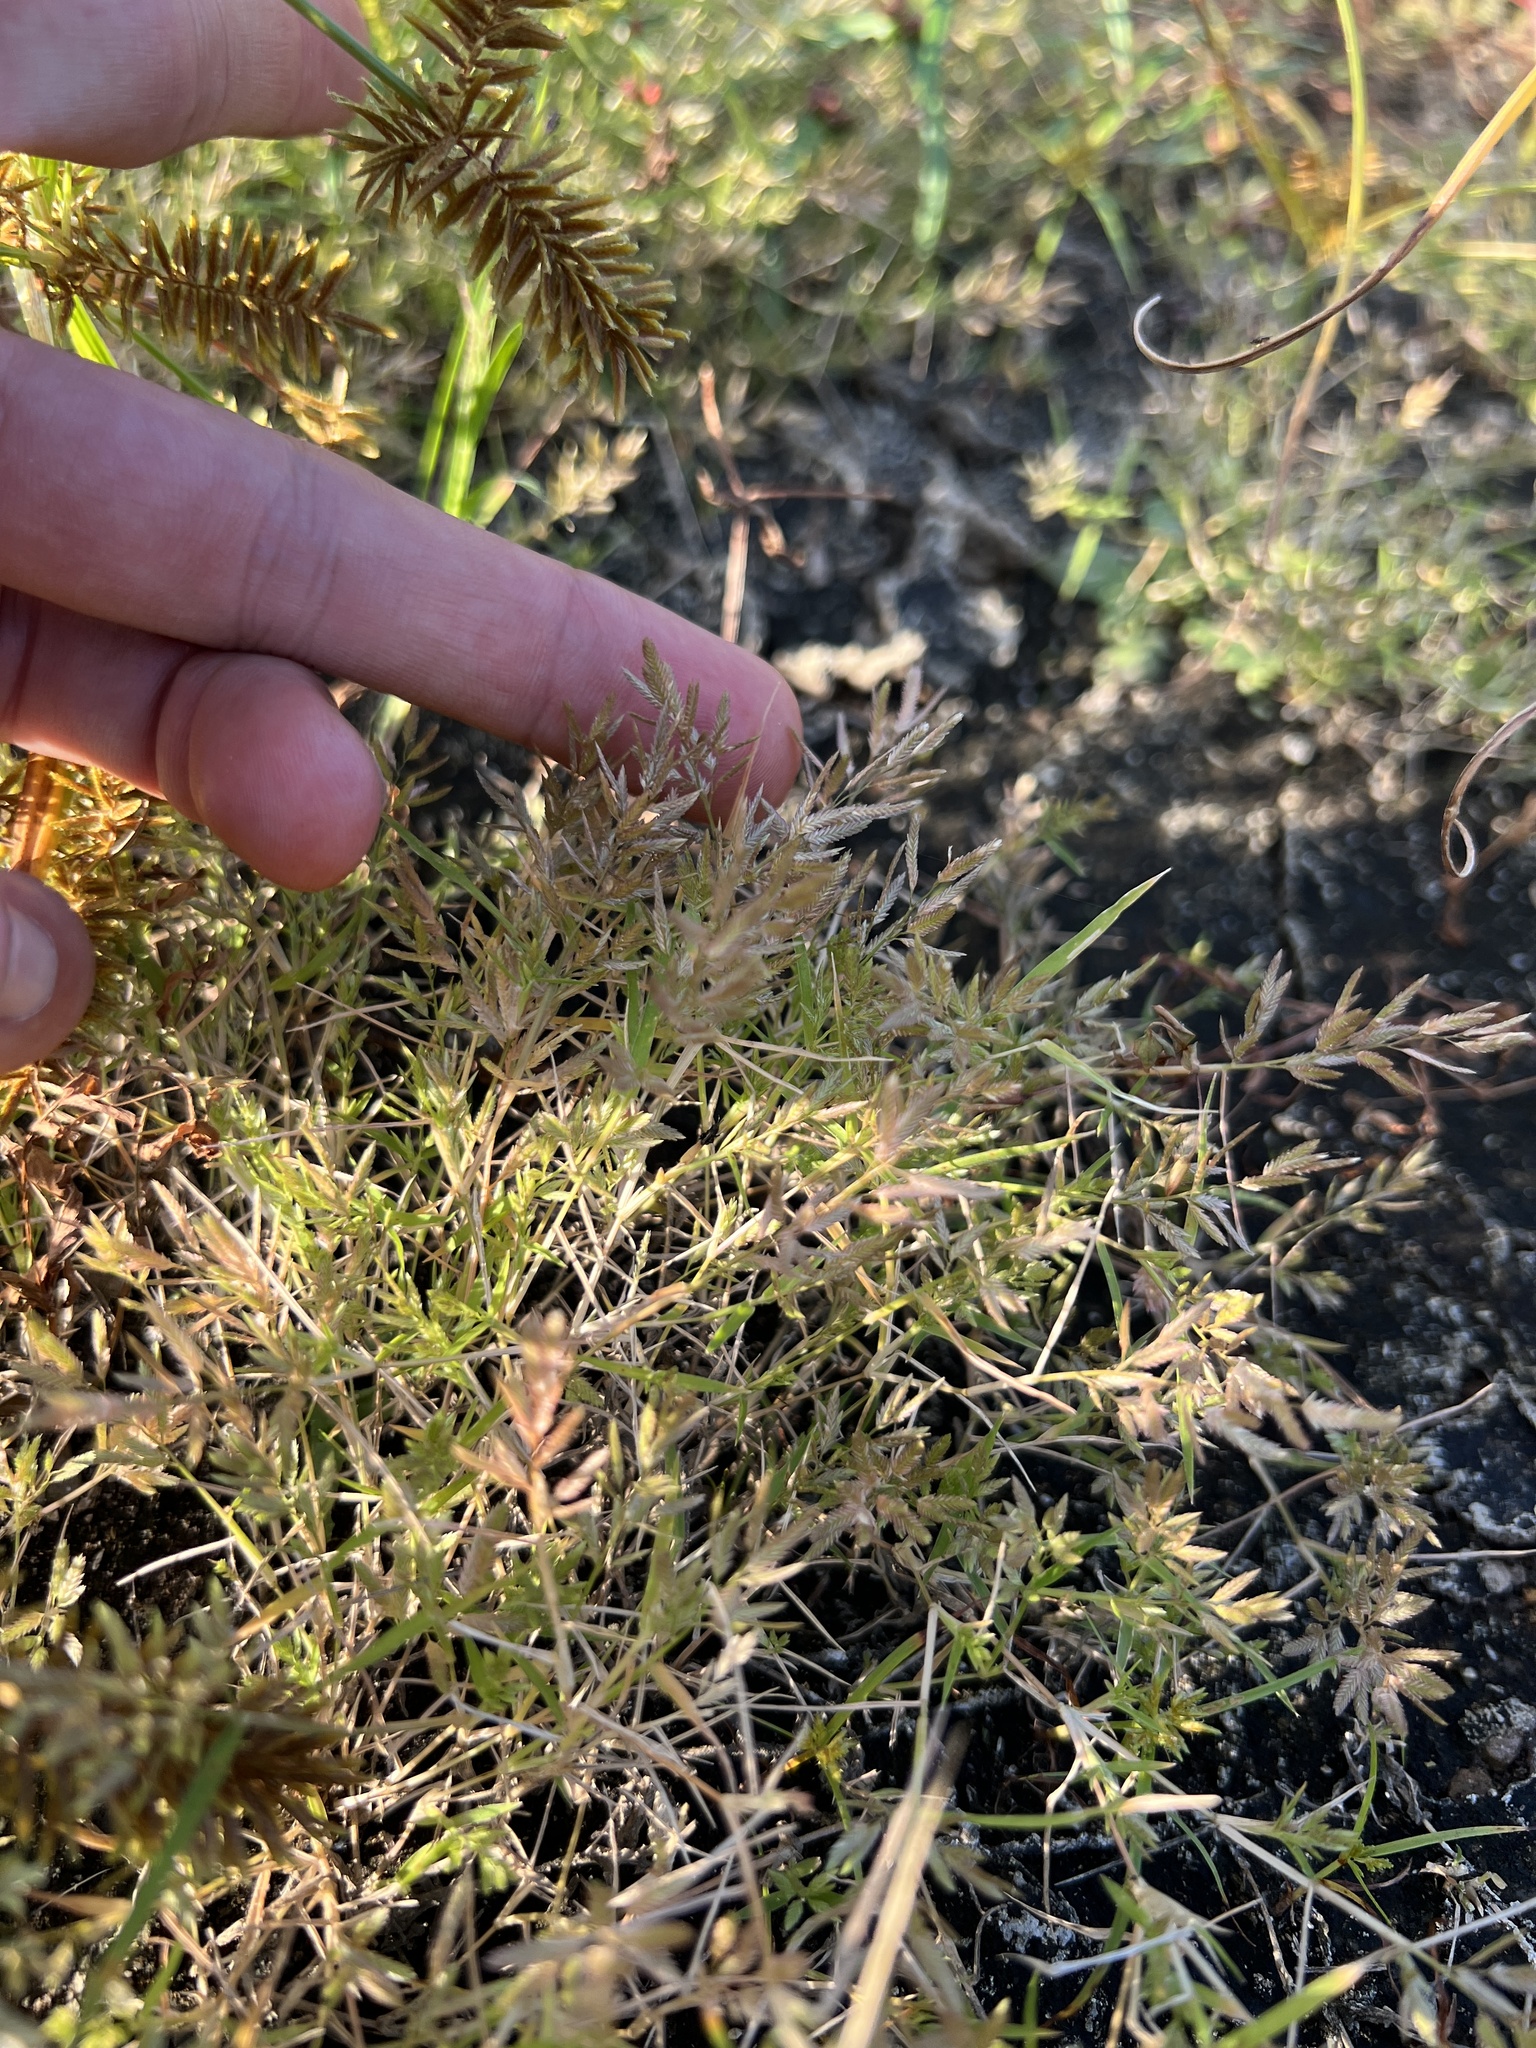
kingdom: Plantae
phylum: Tracheophyta
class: Liliopsida
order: Poales
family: Poaceae
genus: Eragrostis
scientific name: Eragrostis hypnoides
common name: Creeping love grass
